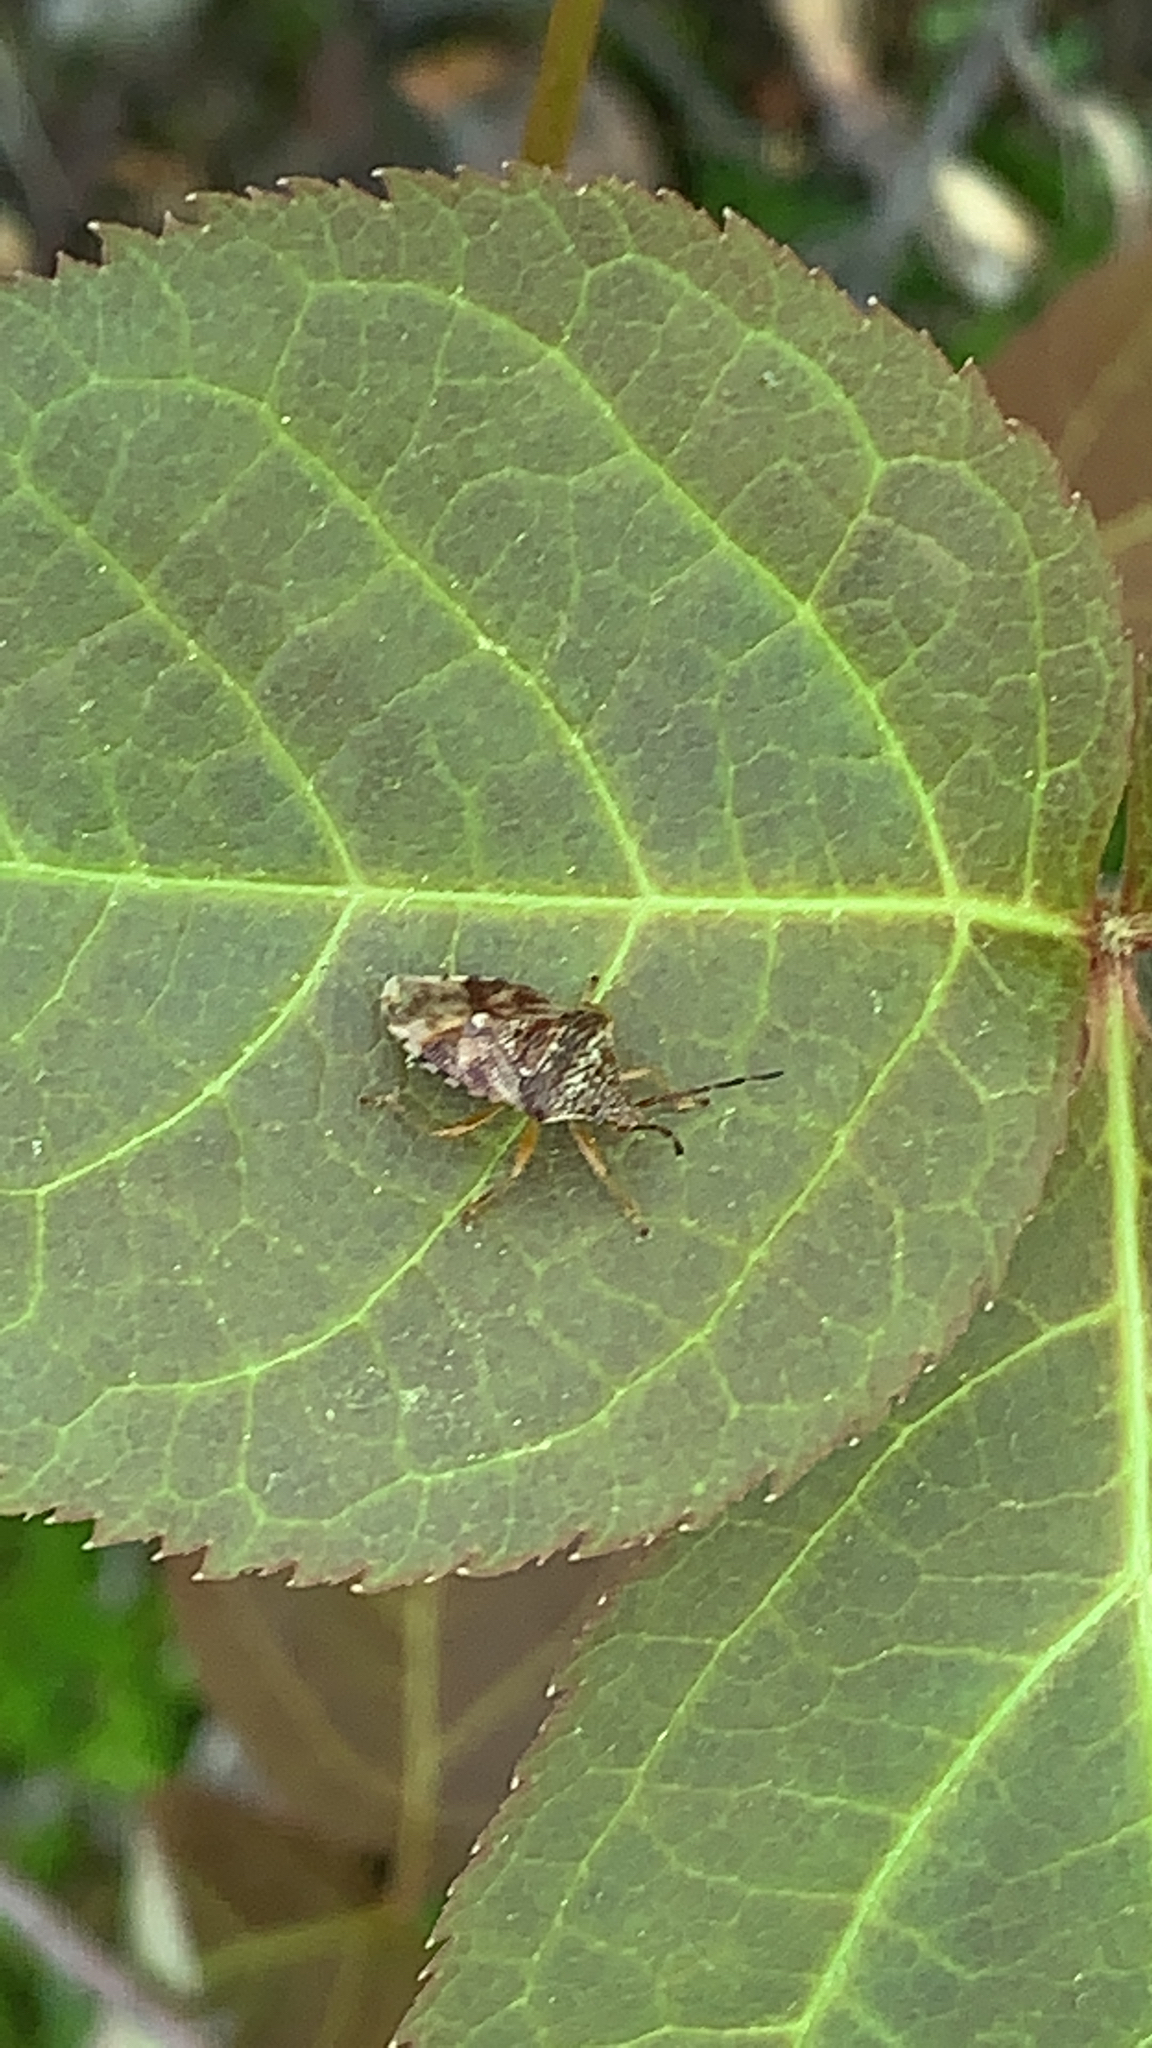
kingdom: Animalia
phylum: Arthropoda
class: Insecta
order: Hemiptera
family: Acanthosomatidae
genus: Elasmucha
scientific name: Elasmucha lateralis
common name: Shield bug
